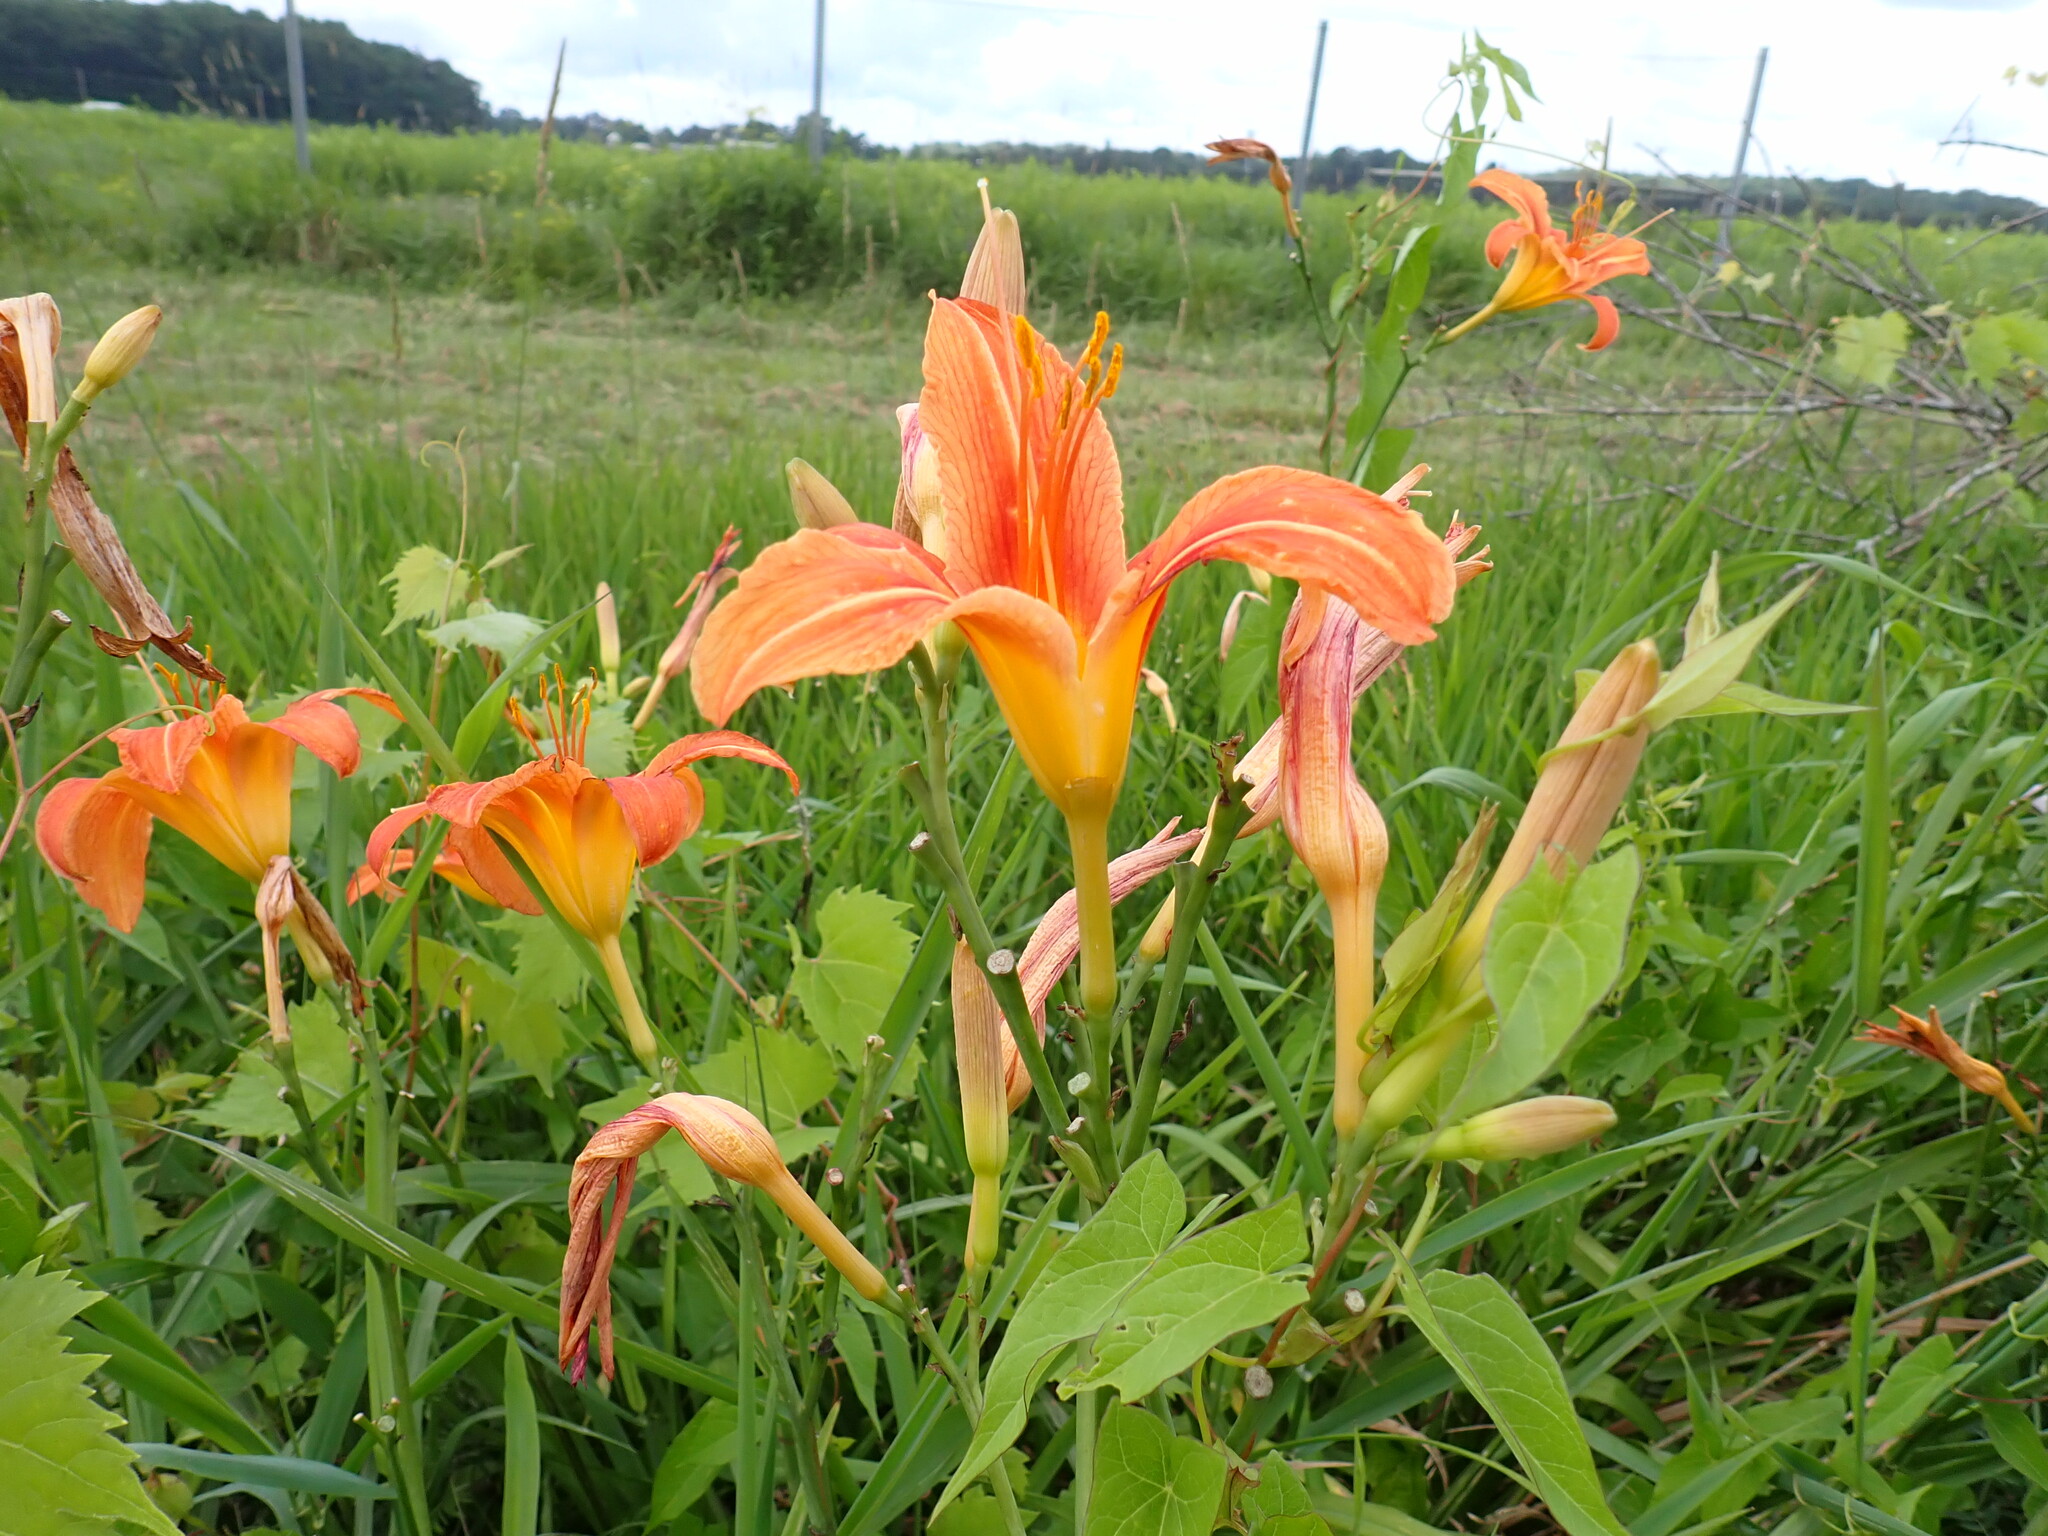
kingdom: Plantae
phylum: Tracheophyta
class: Liliopsida
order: Asparagales
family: Asphodelaceae
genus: Hemerocallis
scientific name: Hemerocallis fulva
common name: Orange day-lily
